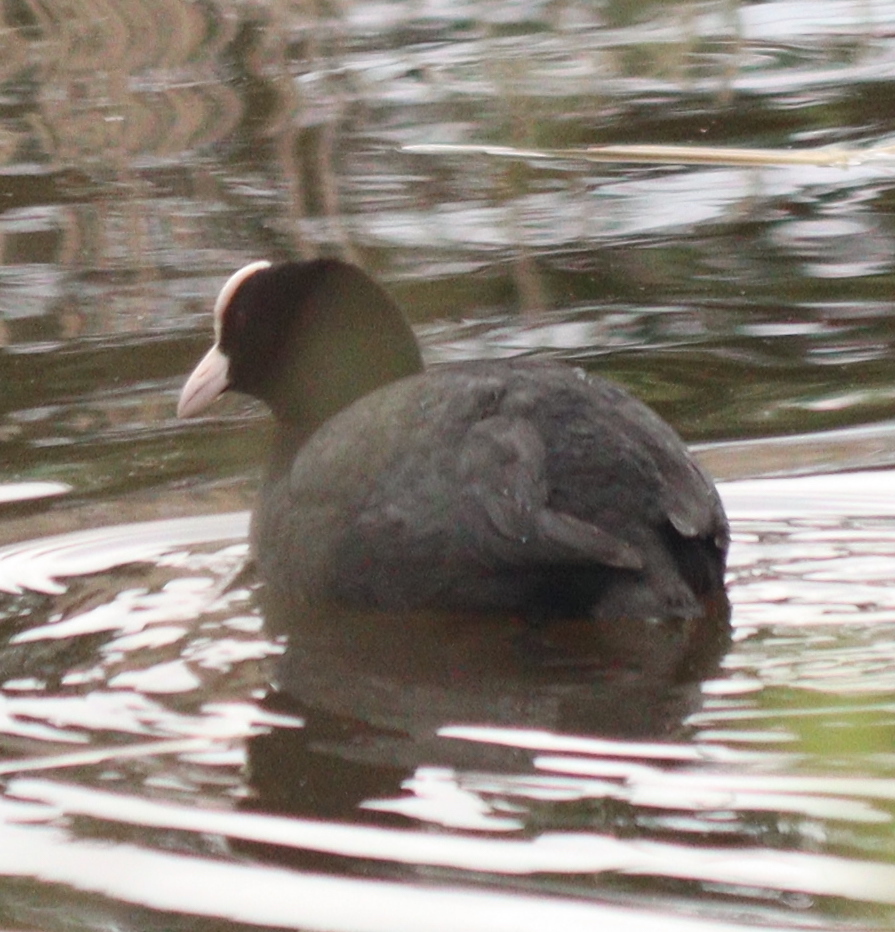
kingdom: Animalia
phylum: Chordata
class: Aves
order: Gruiformes
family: Rallidae
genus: Fulica
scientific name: Fulica atra
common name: Eurasian coot
